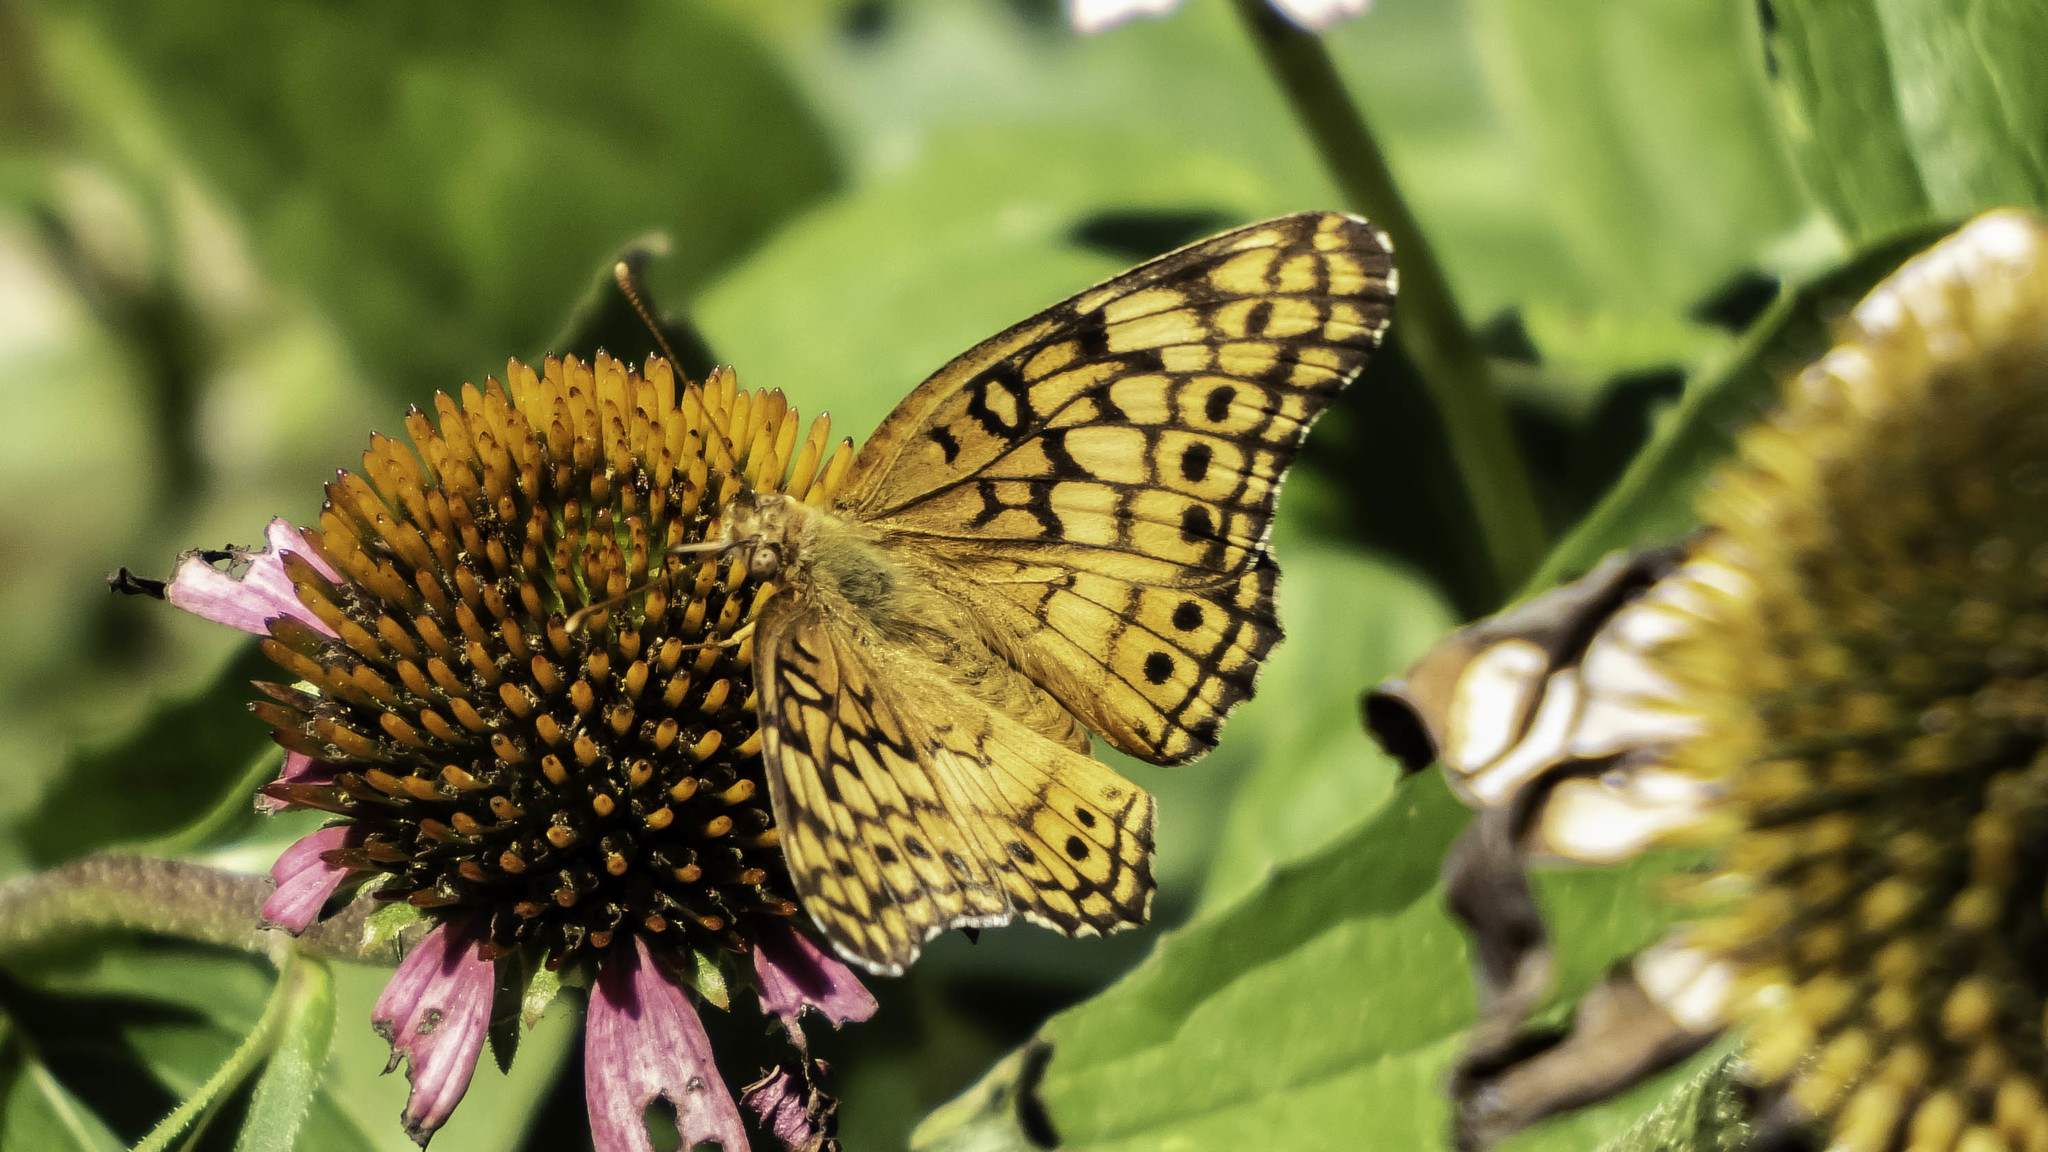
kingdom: Animalia
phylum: Arthropoda
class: Insecta
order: Lepidoptera
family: Nymphalidae
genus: Euptoieta
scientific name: Euptoieta claudia
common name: Variegated fritillary
